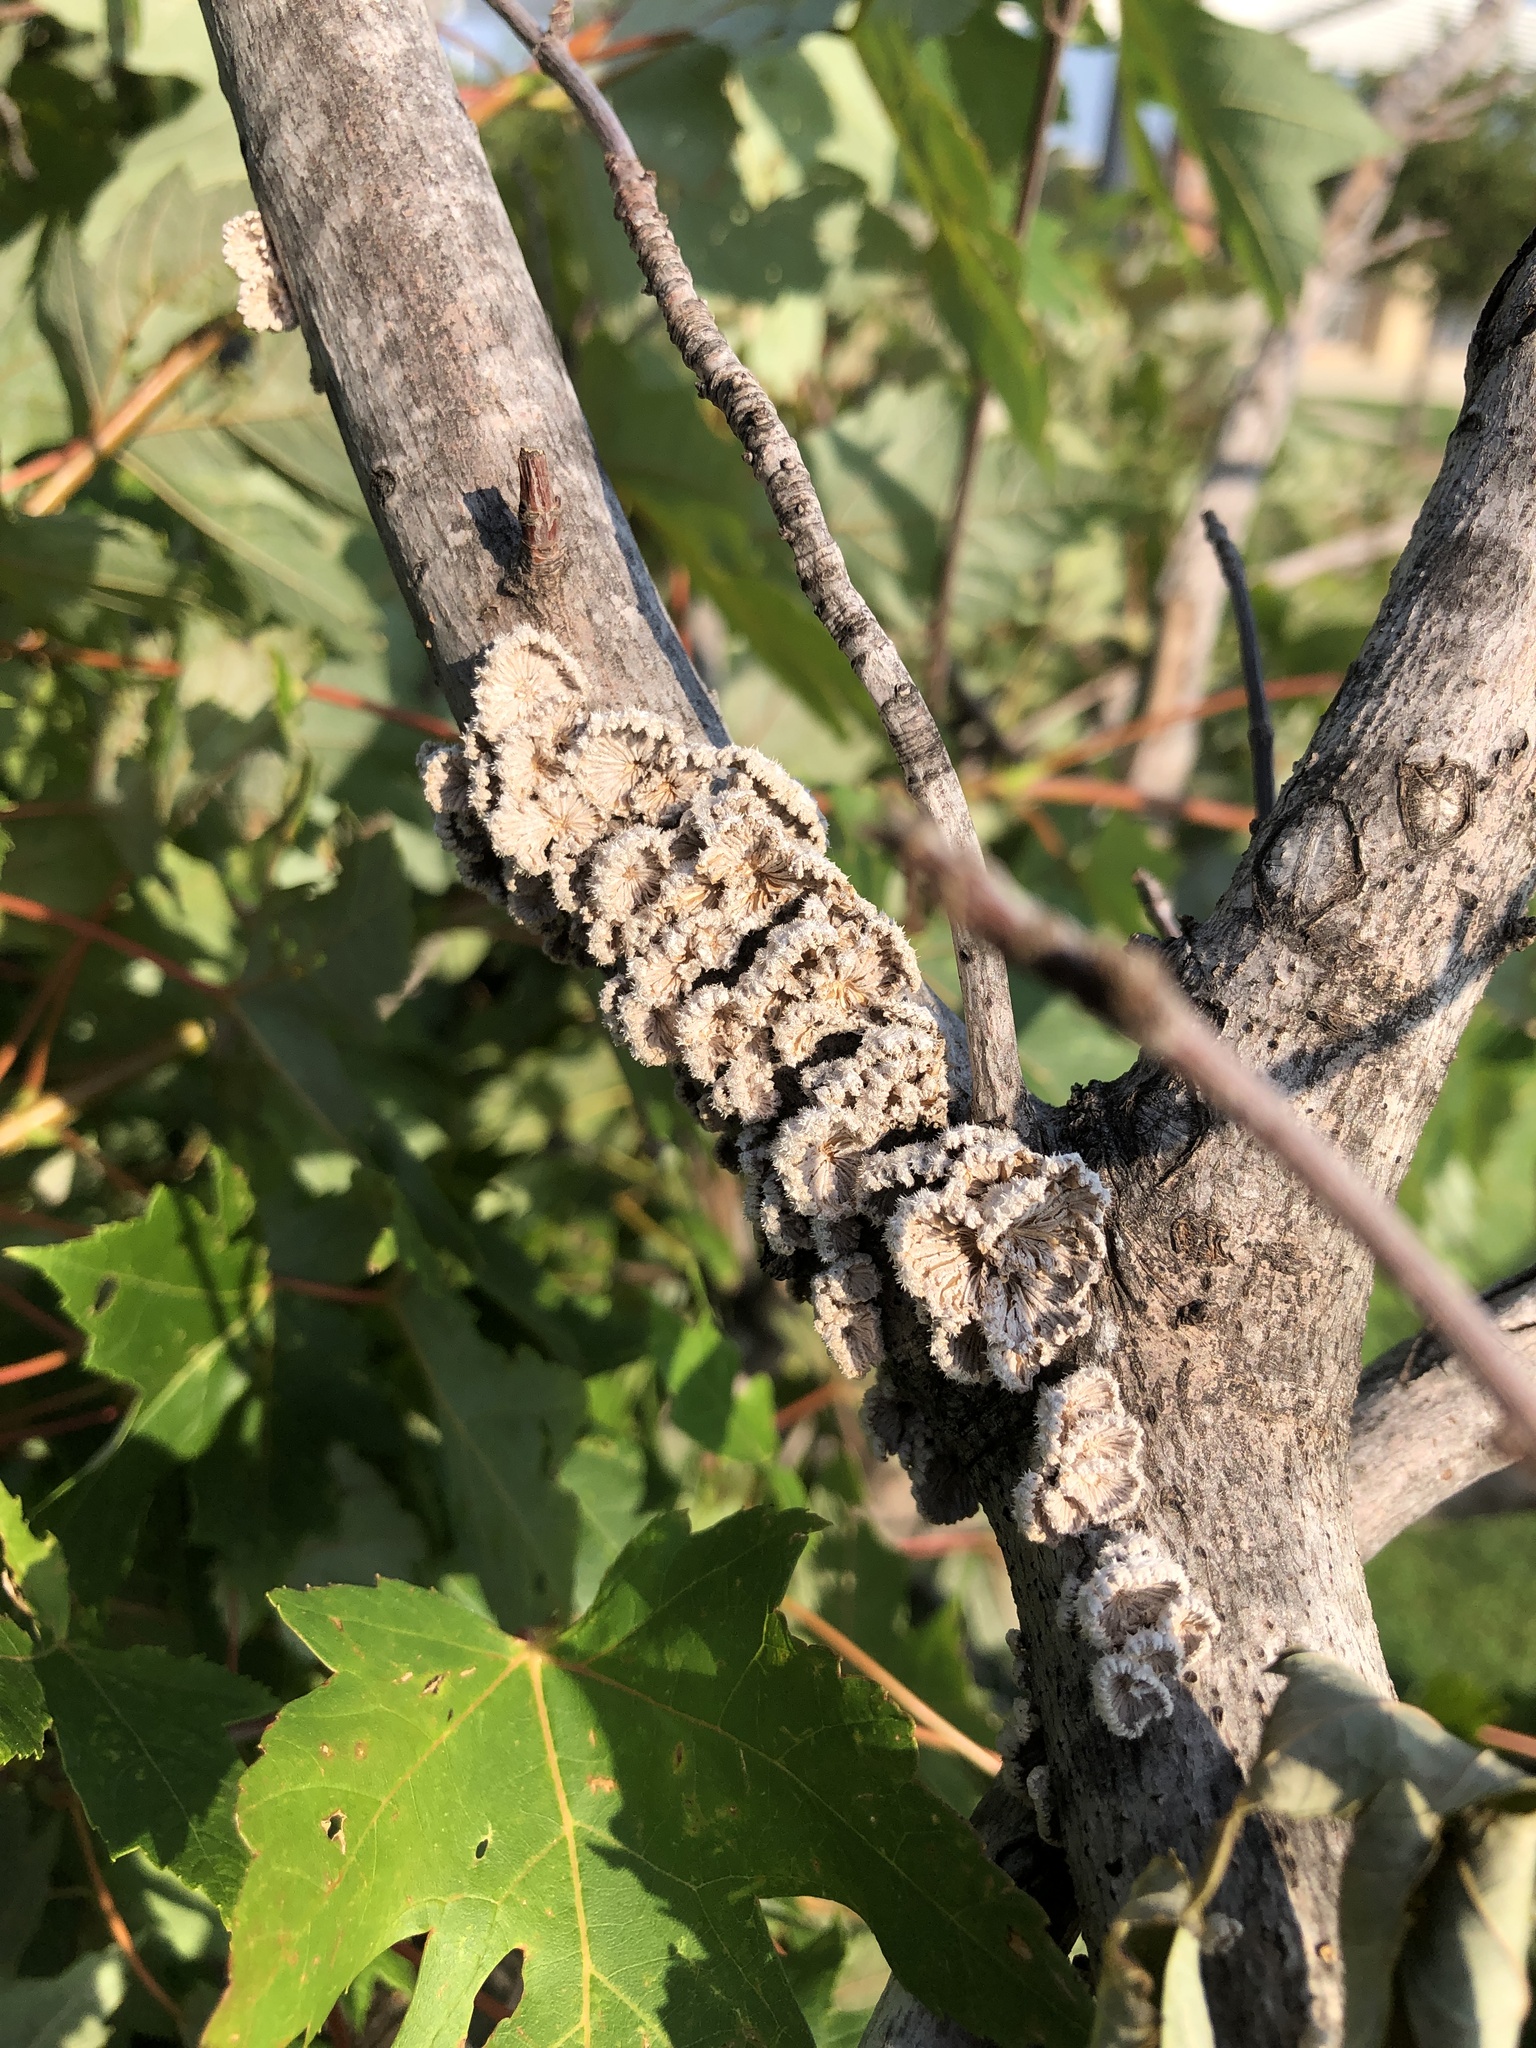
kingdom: Fungi
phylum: Basidiomycota
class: Agaricomycetes
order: Agaricales
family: Schizophyllaceae
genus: Schizophyllum
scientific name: Schizophyllum commune
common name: Common porecrust
